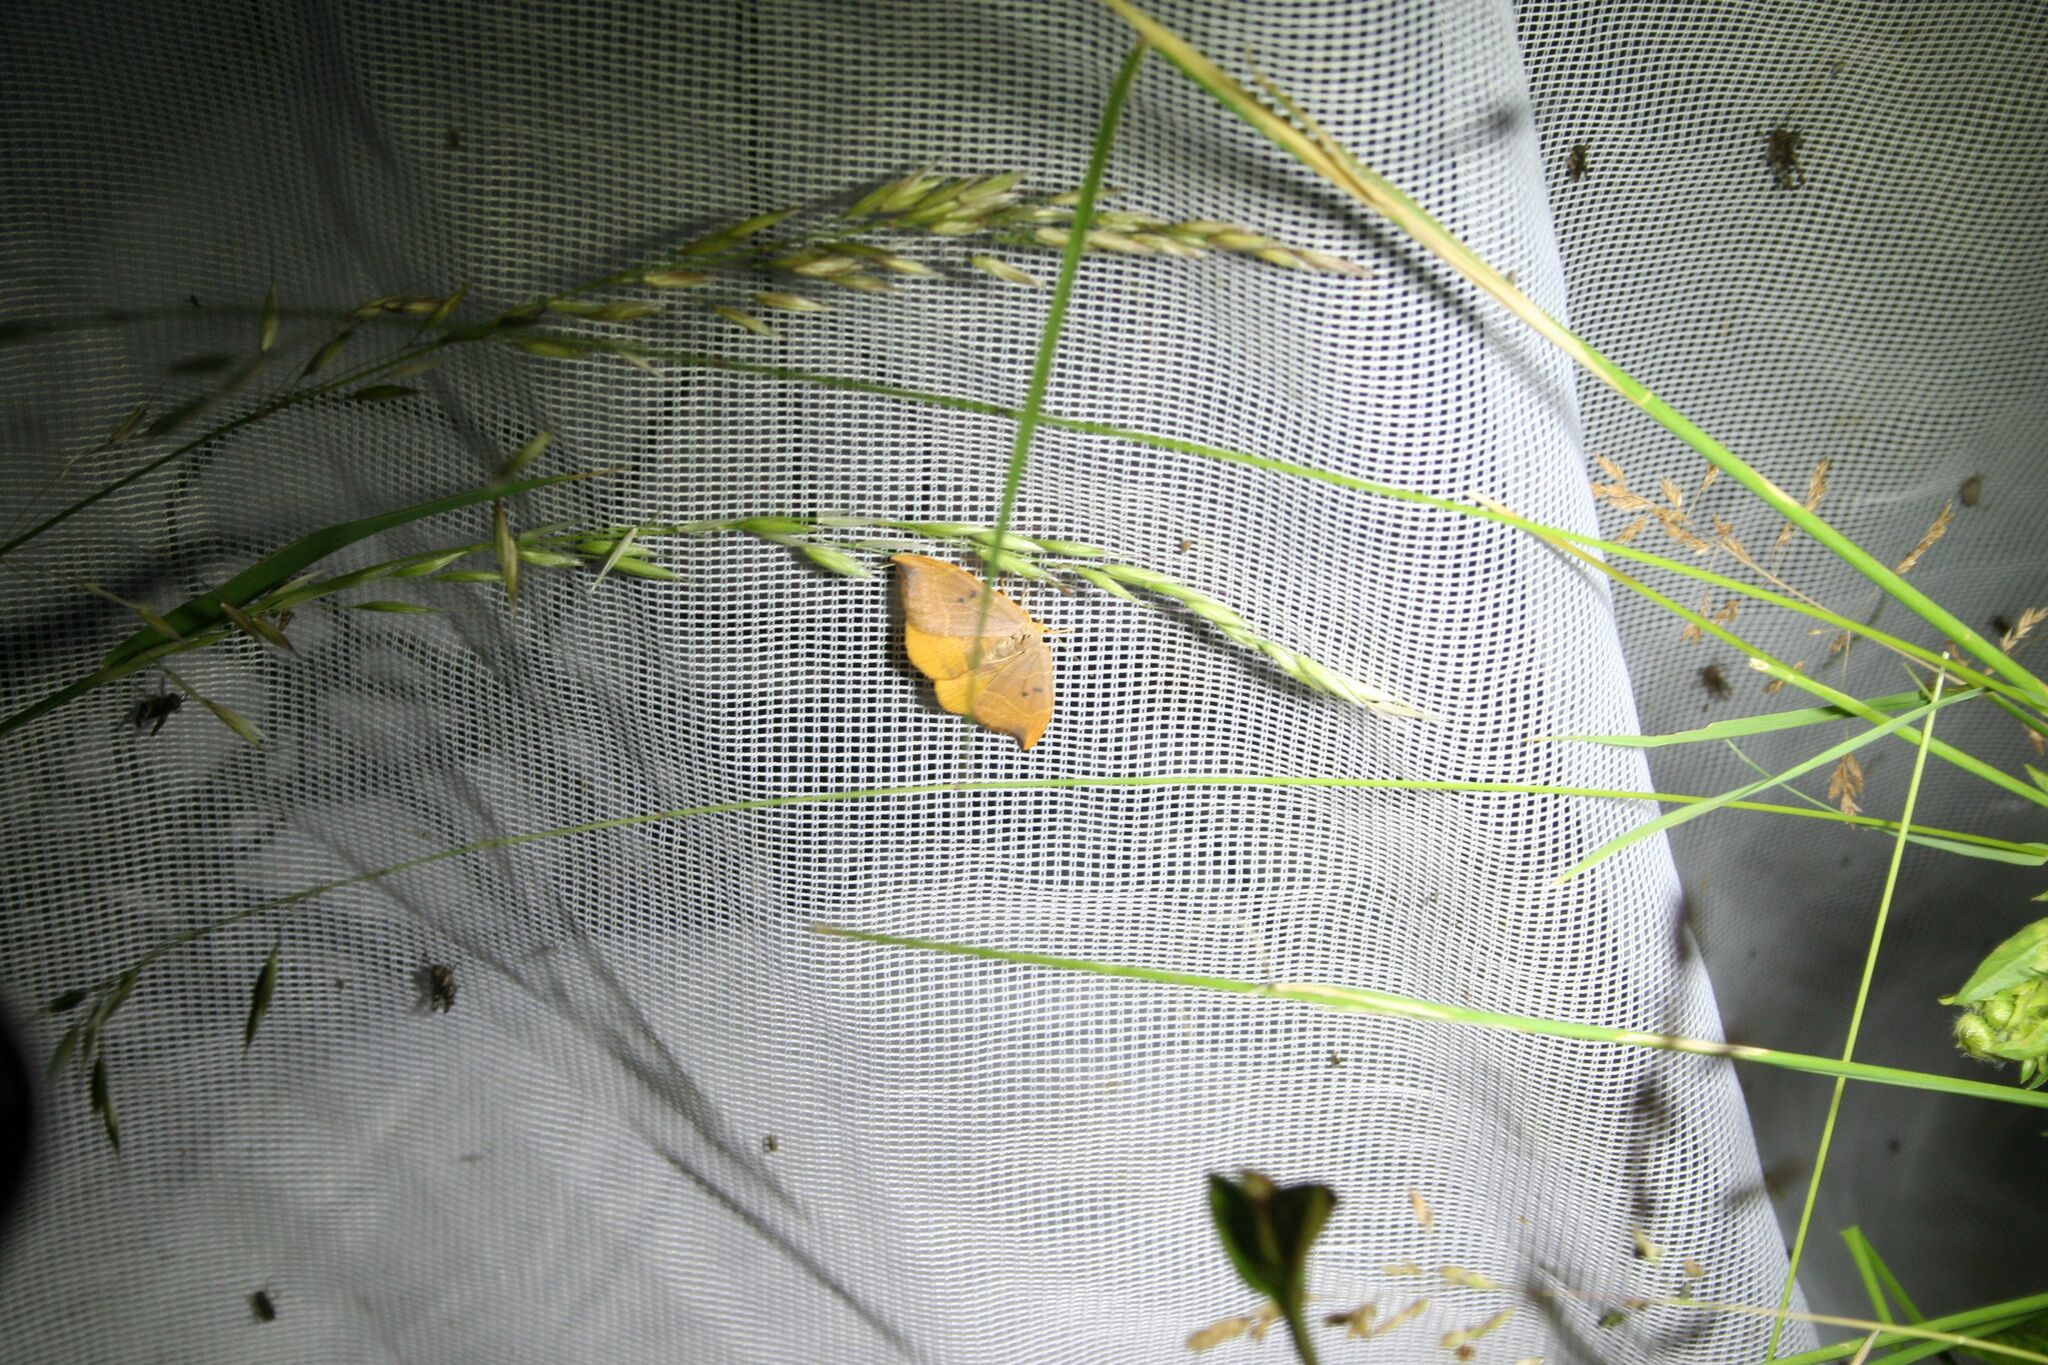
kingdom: Animalia
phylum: Arthropoda
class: Insecta
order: Lepidoptera
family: Drepanidae
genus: Watsonalla
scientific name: Watsonalla binaria
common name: Oak hook-tip
